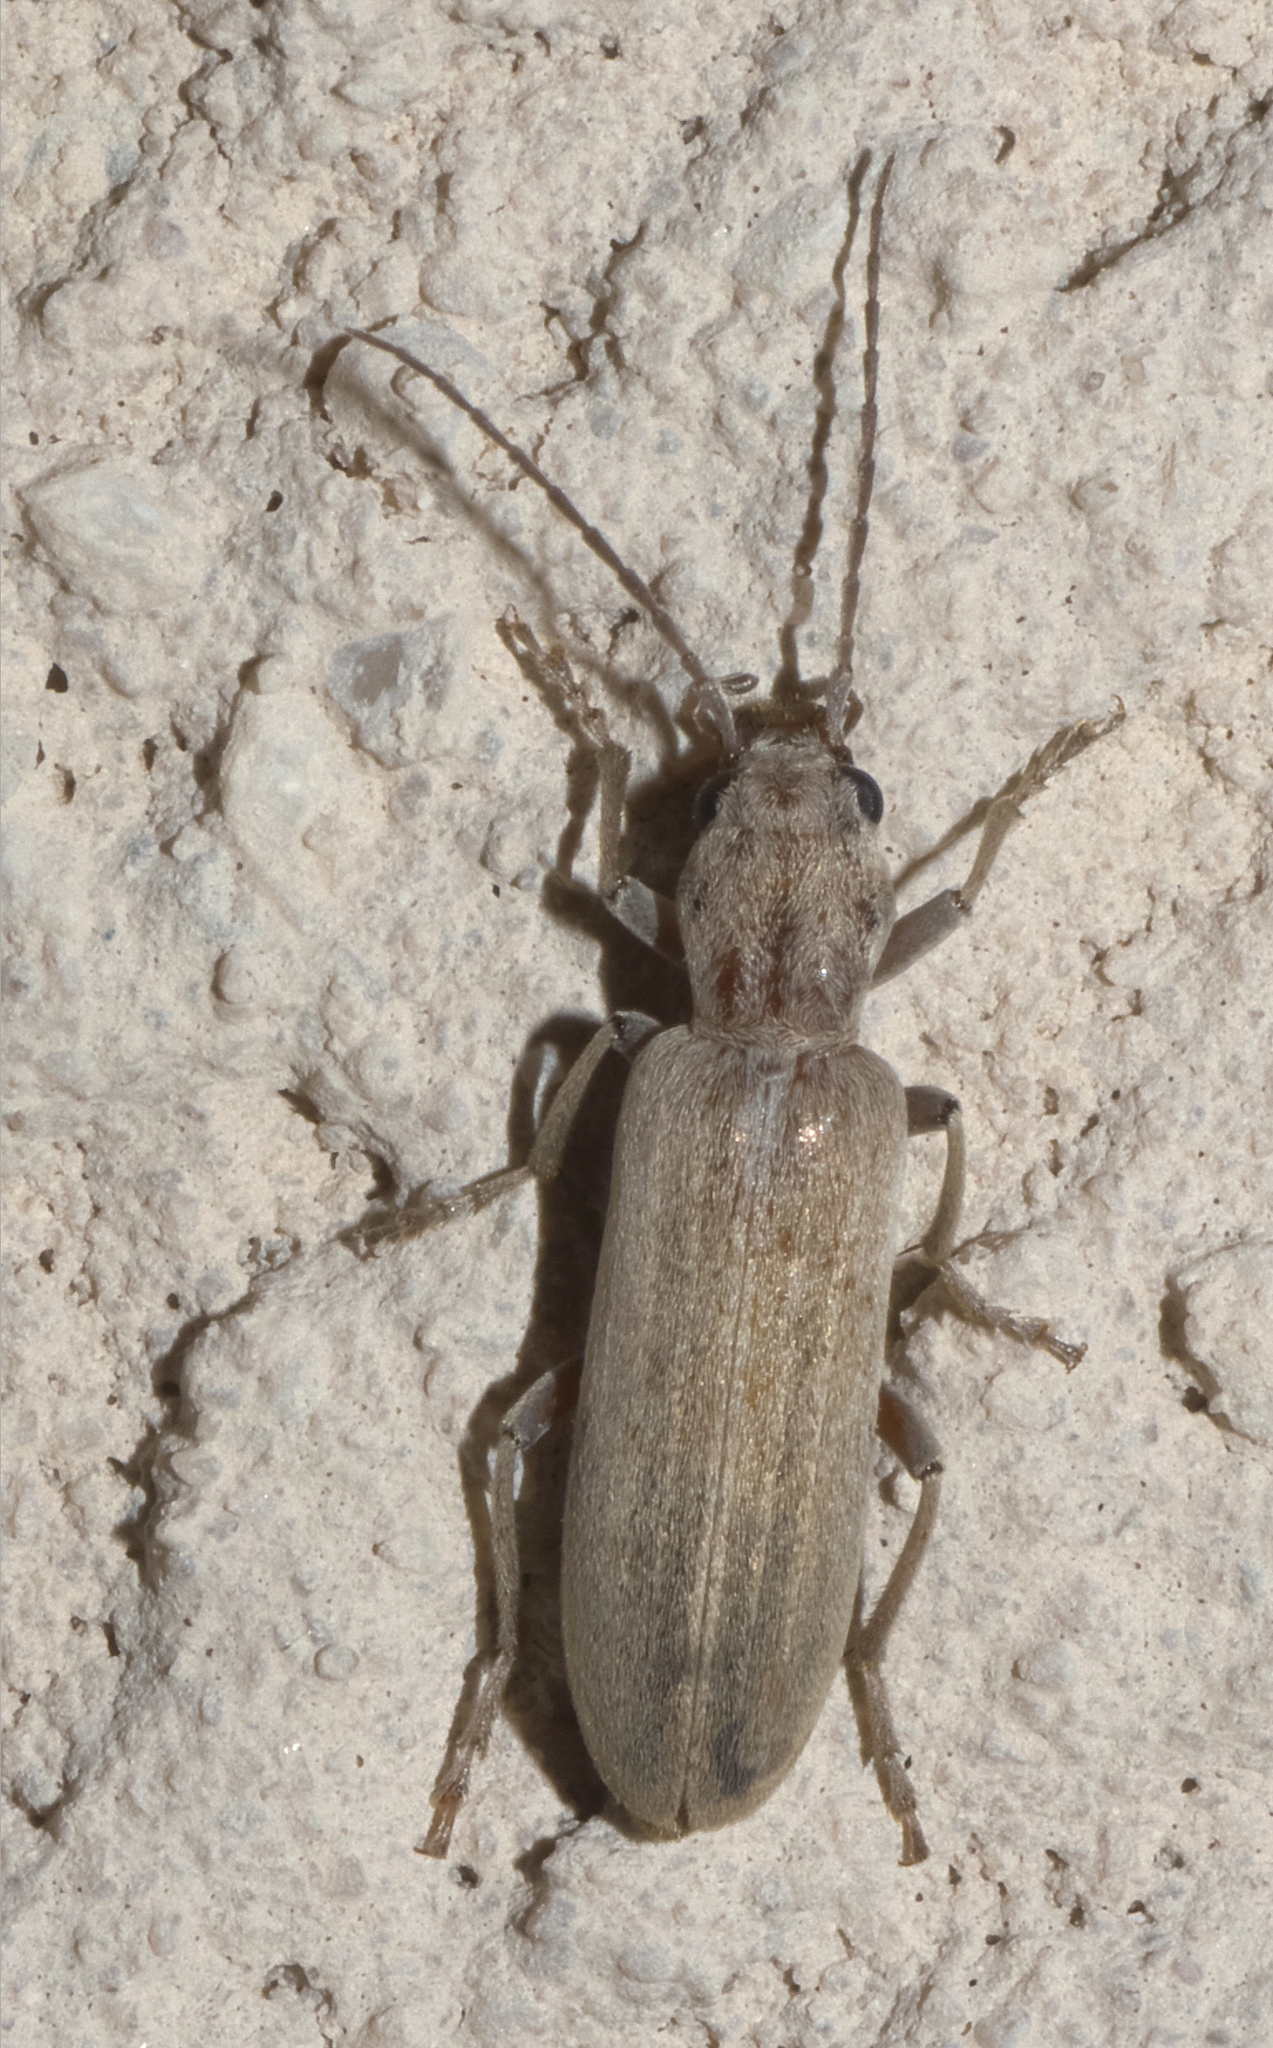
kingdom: Animalia
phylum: Arthropoda
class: Insecta
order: Coleoptera
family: Oedemeridae
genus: Oxacis
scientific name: Oxacis pallida
